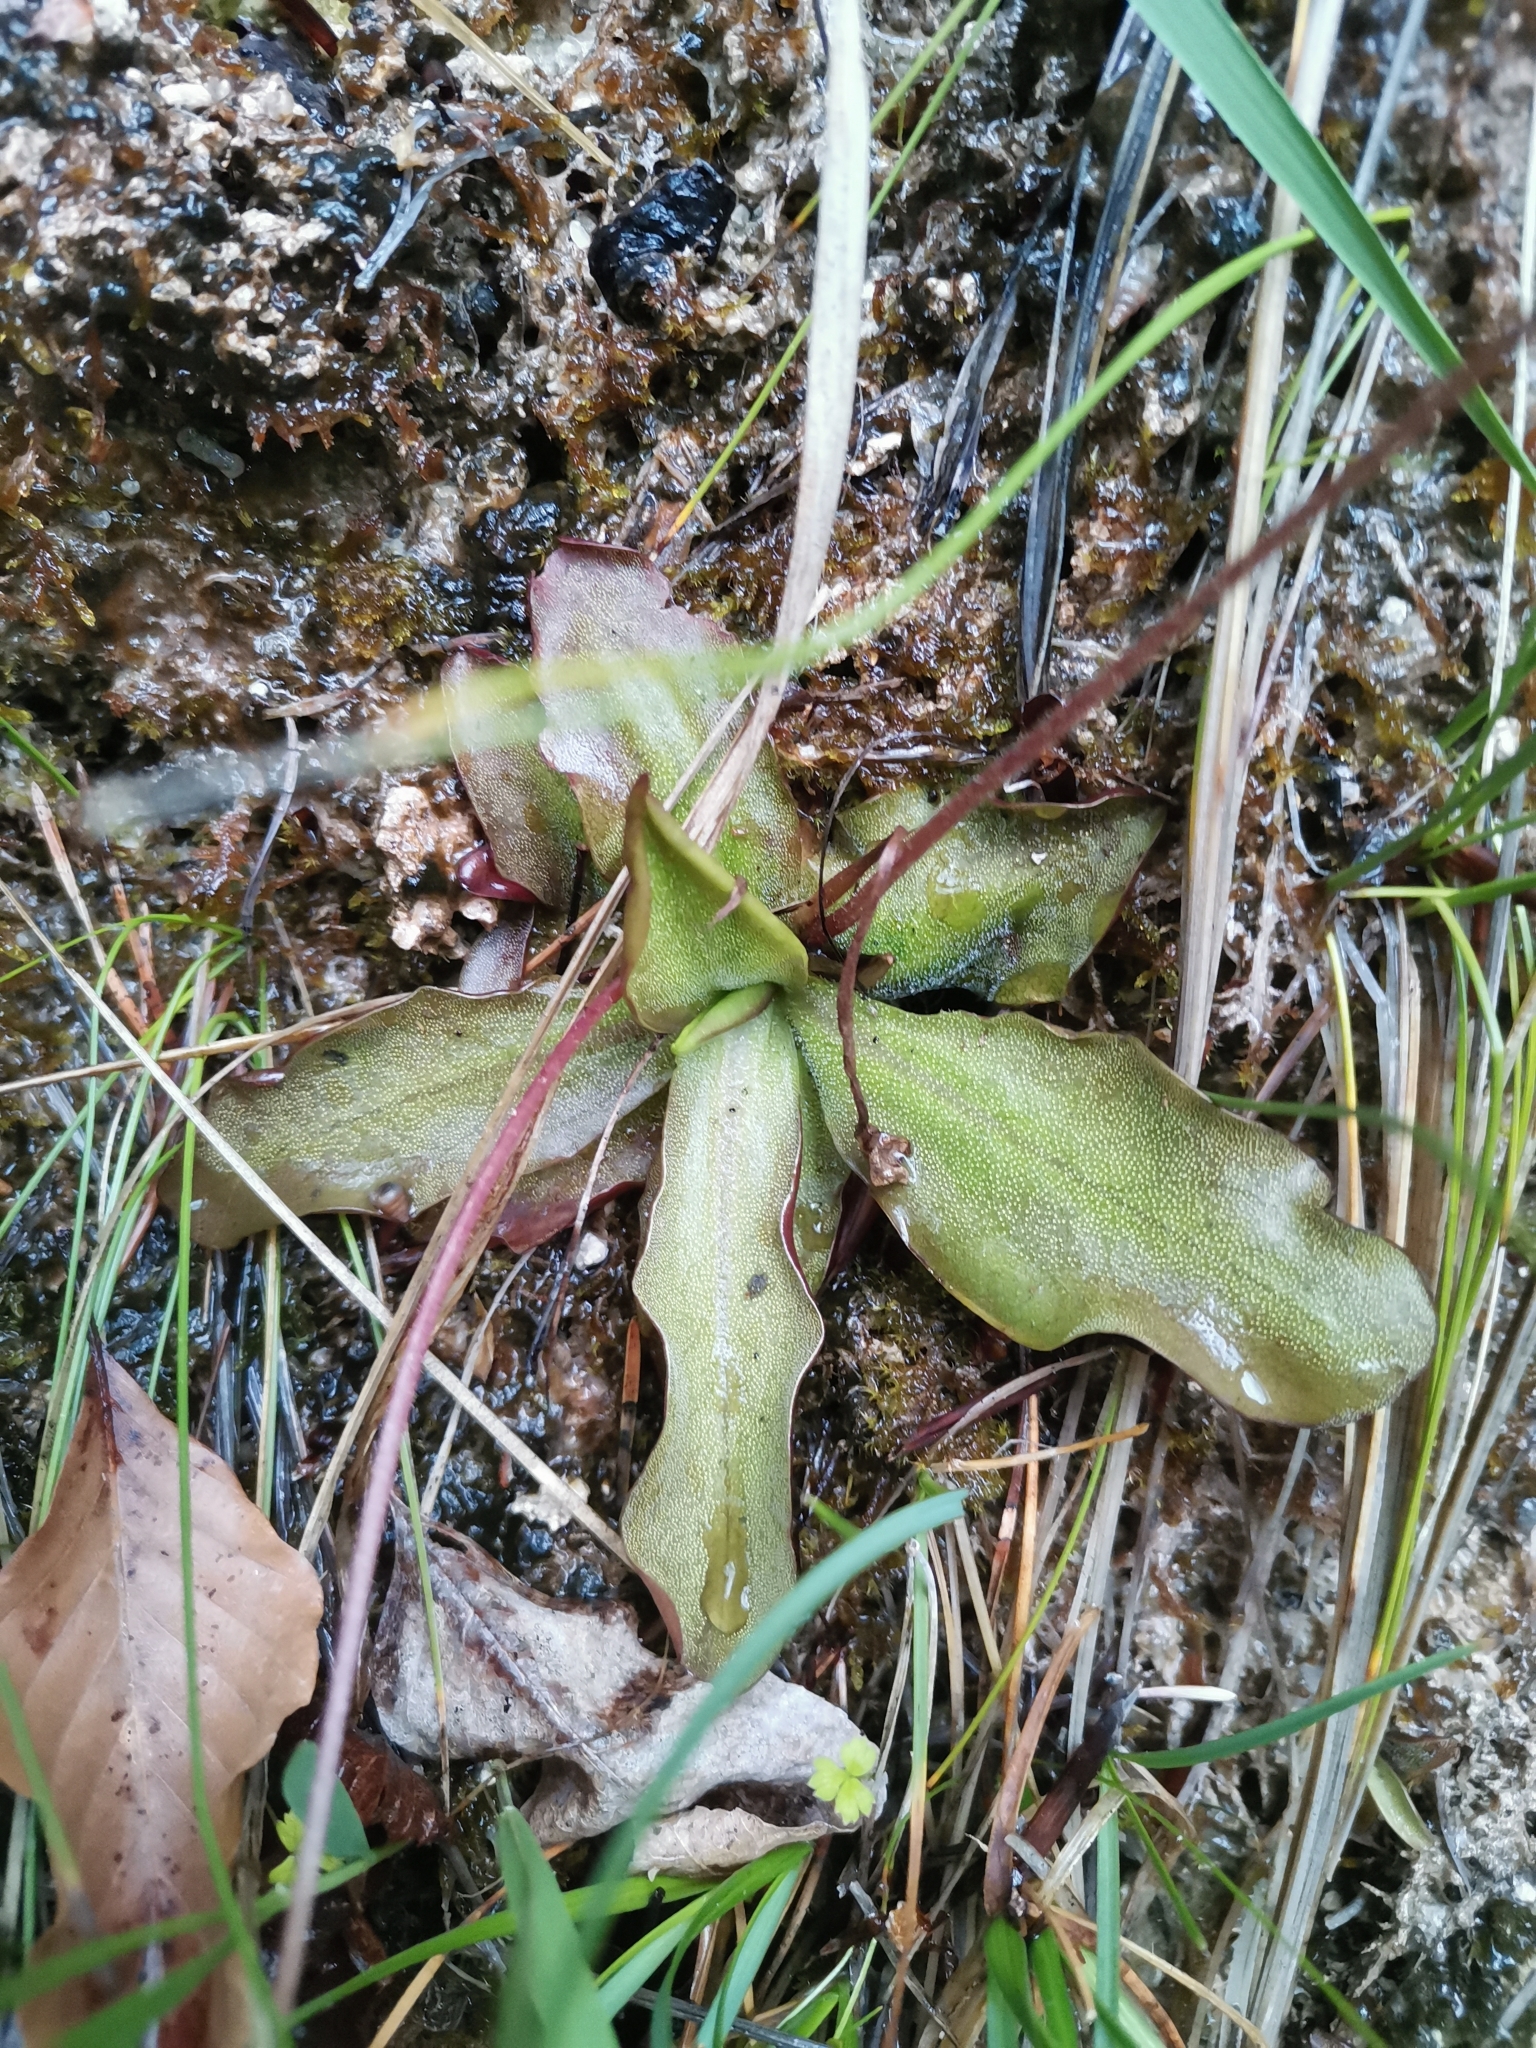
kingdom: Plantae
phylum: Tracheophyta
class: Magnoliopsida
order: Lamiales
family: Lentibulariaceae
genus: Pinguicula
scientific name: Pinguicula alpina
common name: Alpine butterwort
